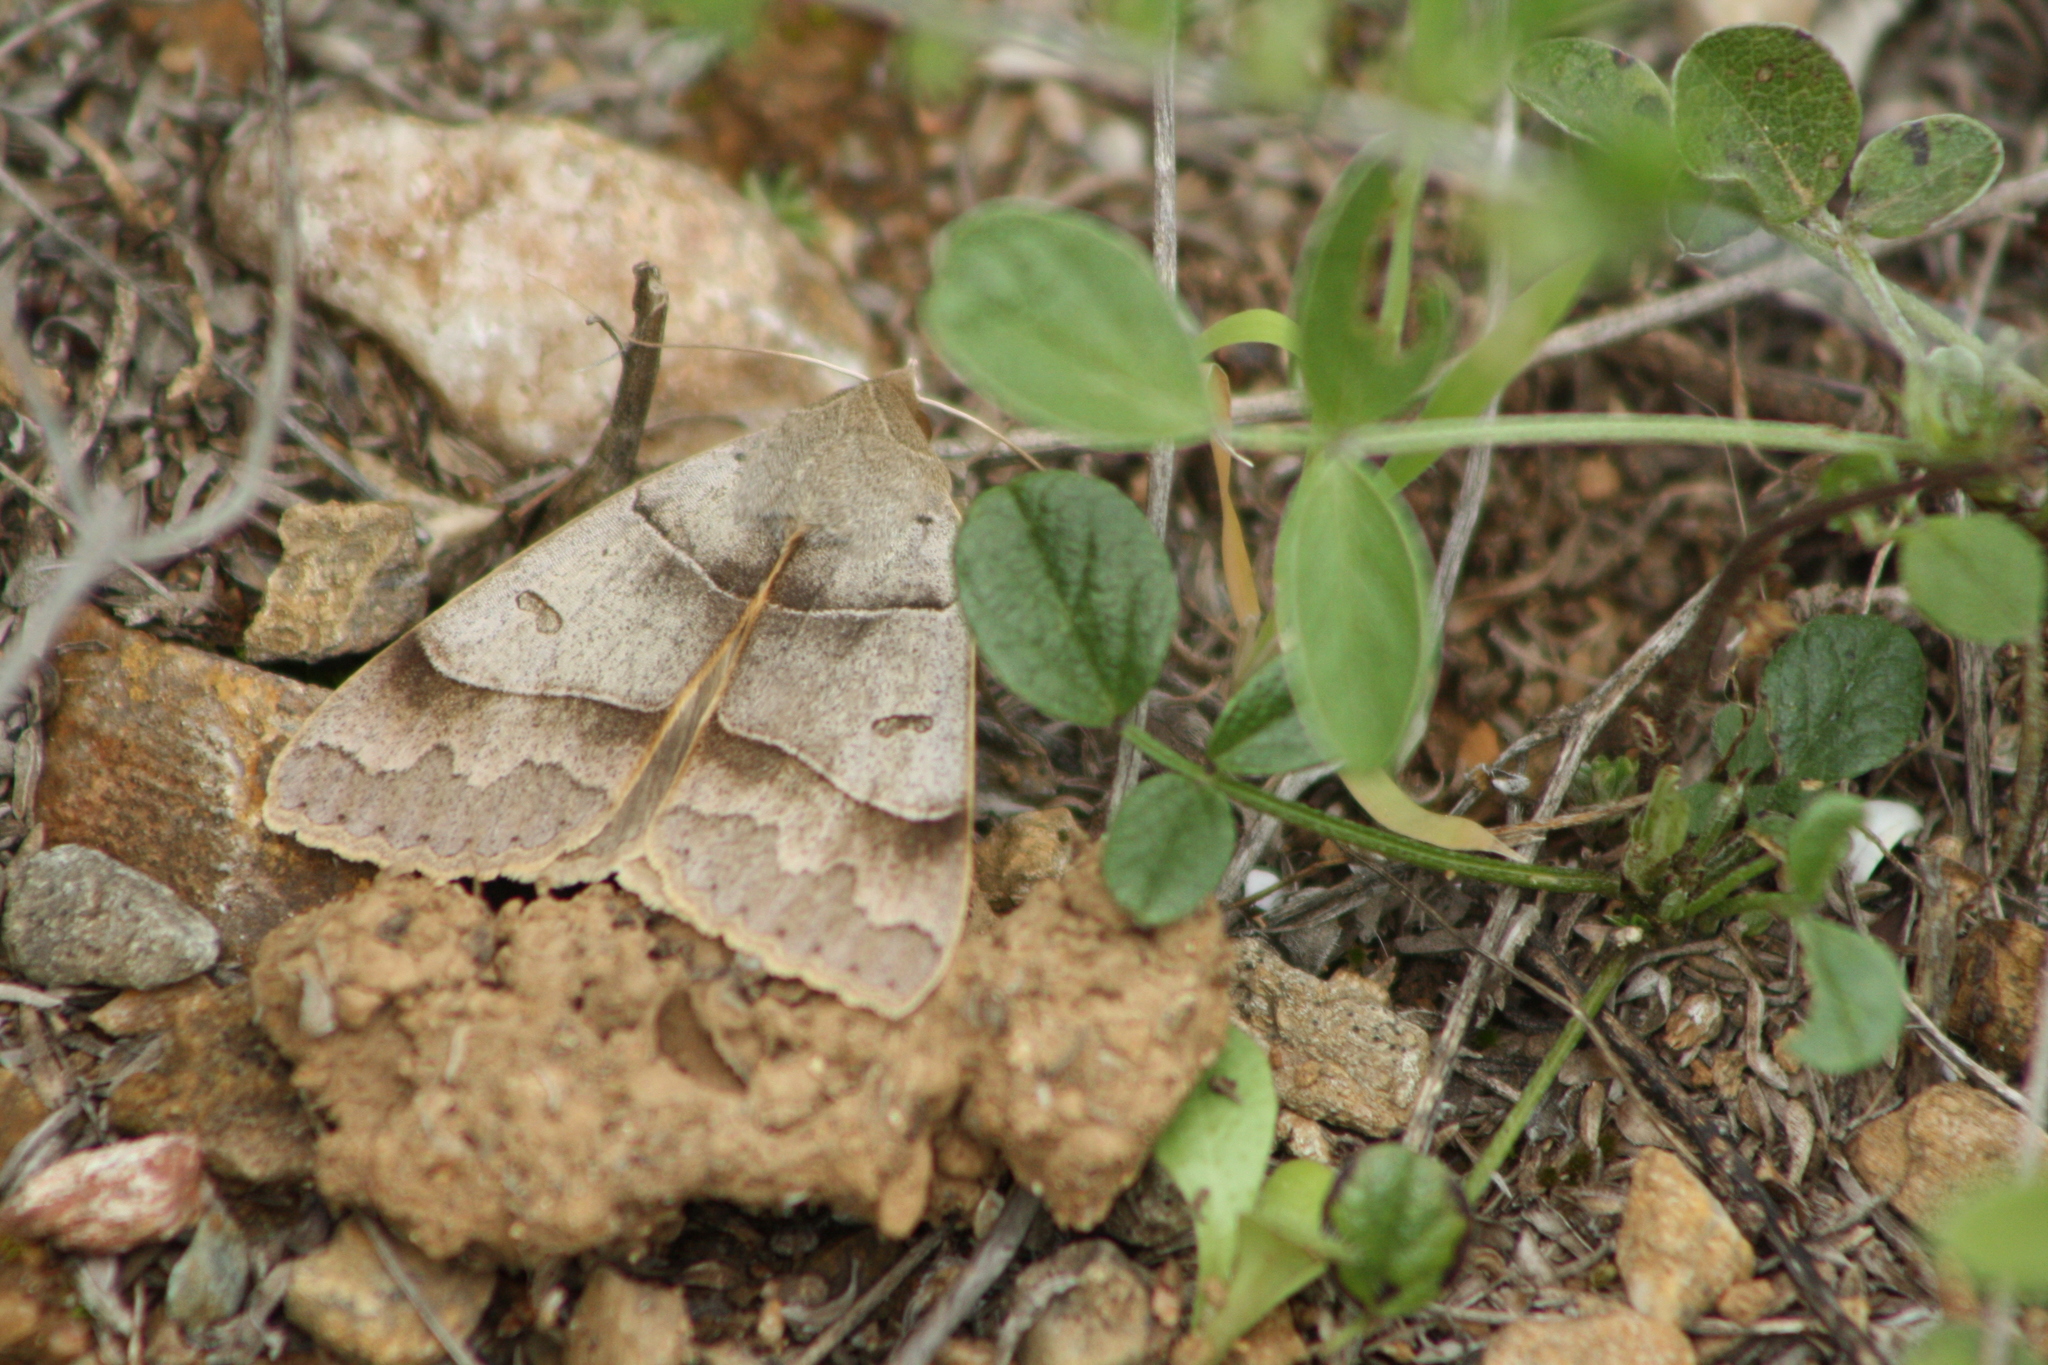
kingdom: Animalia
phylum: Arthropoda
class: Insecta
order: Lepidoptera
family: Erebidae
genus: Minucia
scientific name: Minucia lunaris
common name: Lunar double-stripe
